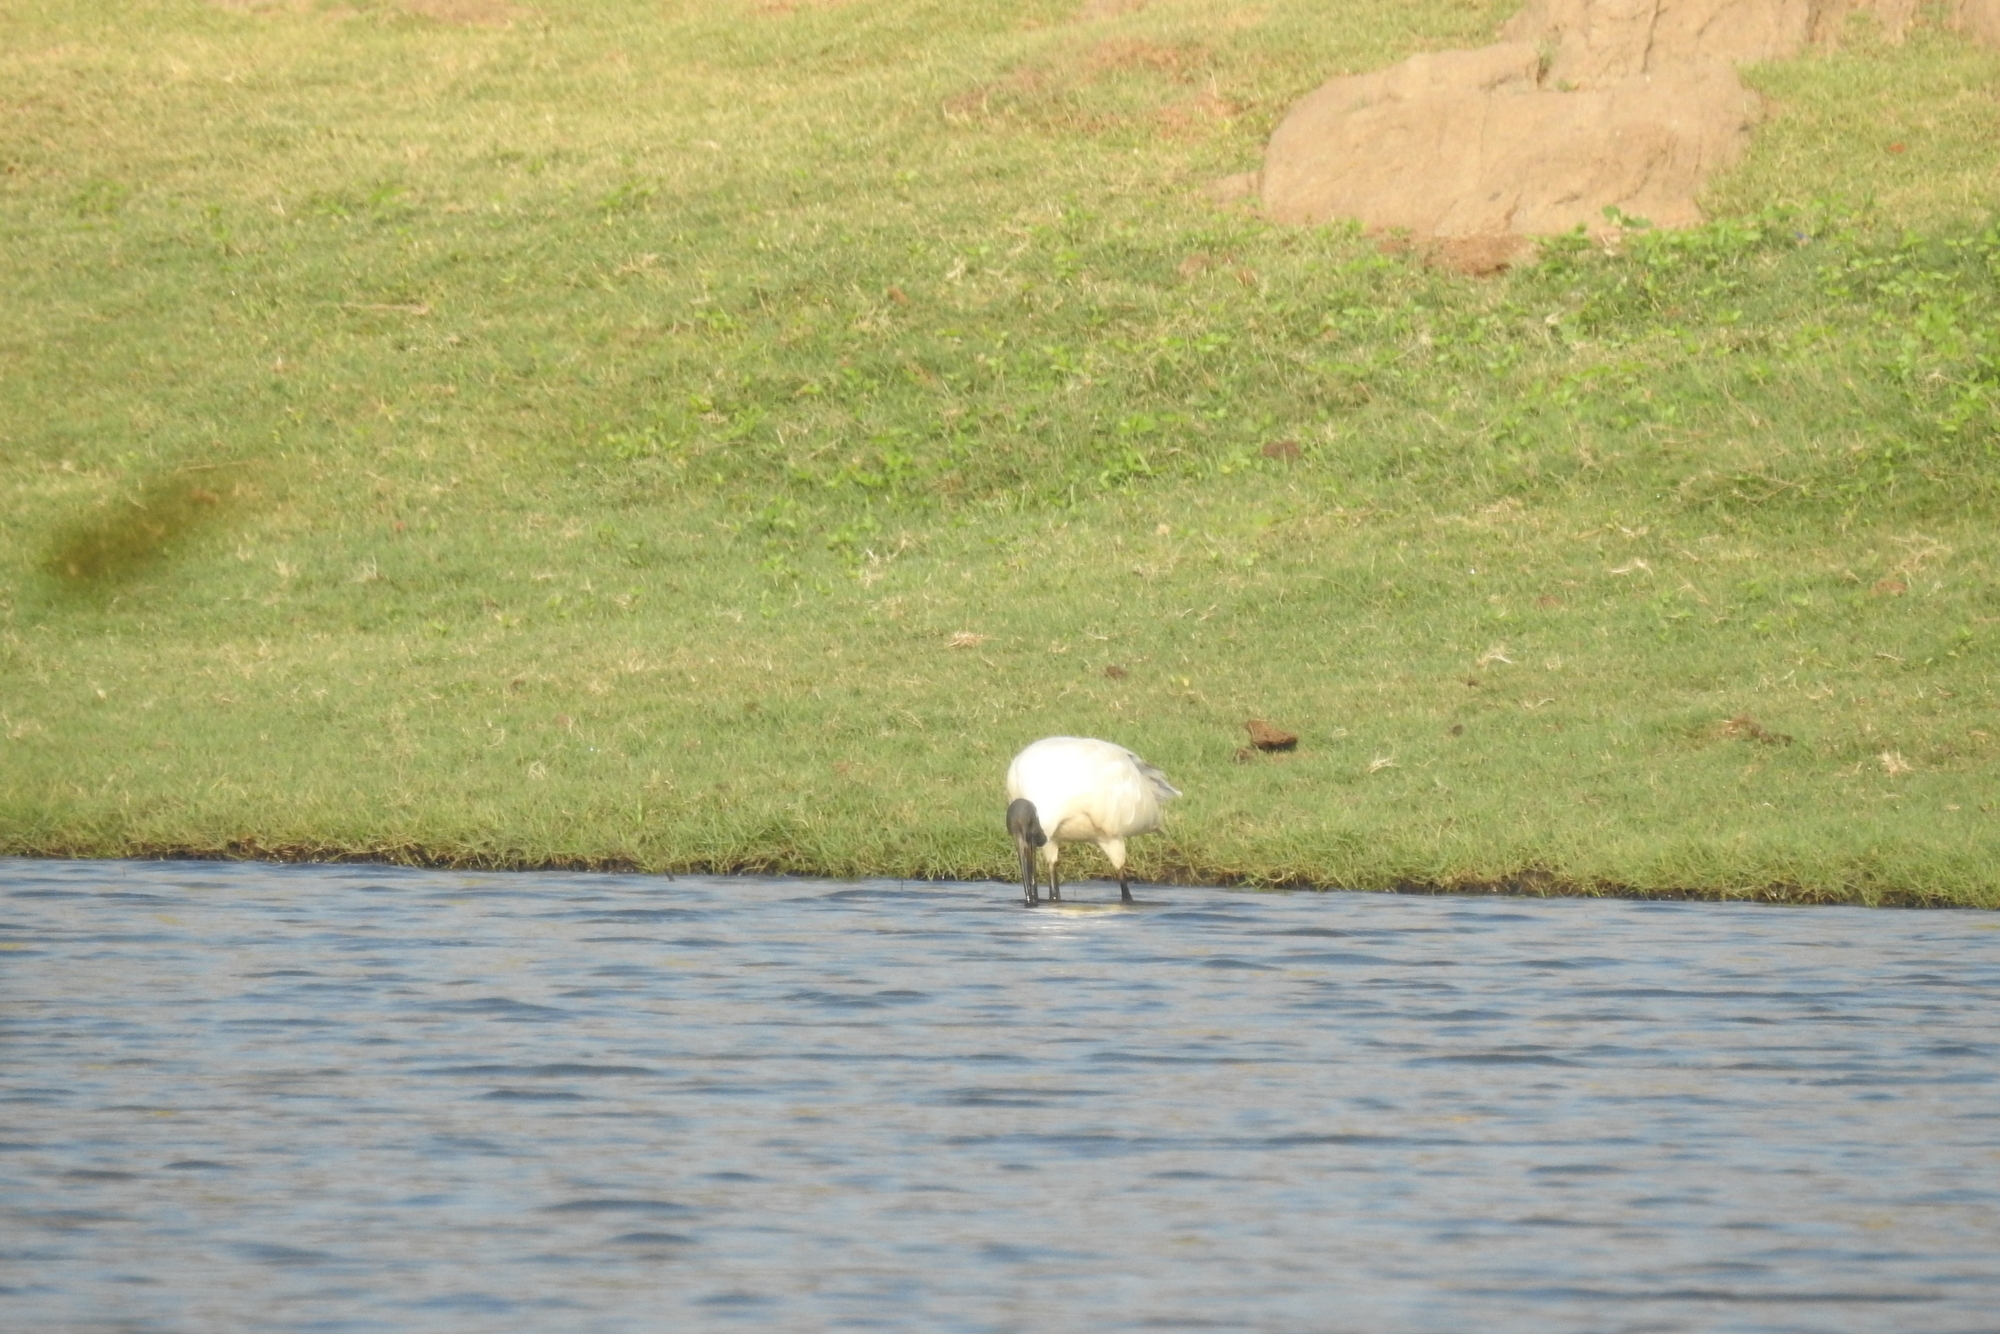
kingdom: Animalia
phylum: Chordata
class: Aves
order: Pelecaniformes
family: Threskiornithidae
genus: Threskiornis
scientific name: Threskiornis melanocephalus
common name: Black-headed ibis
